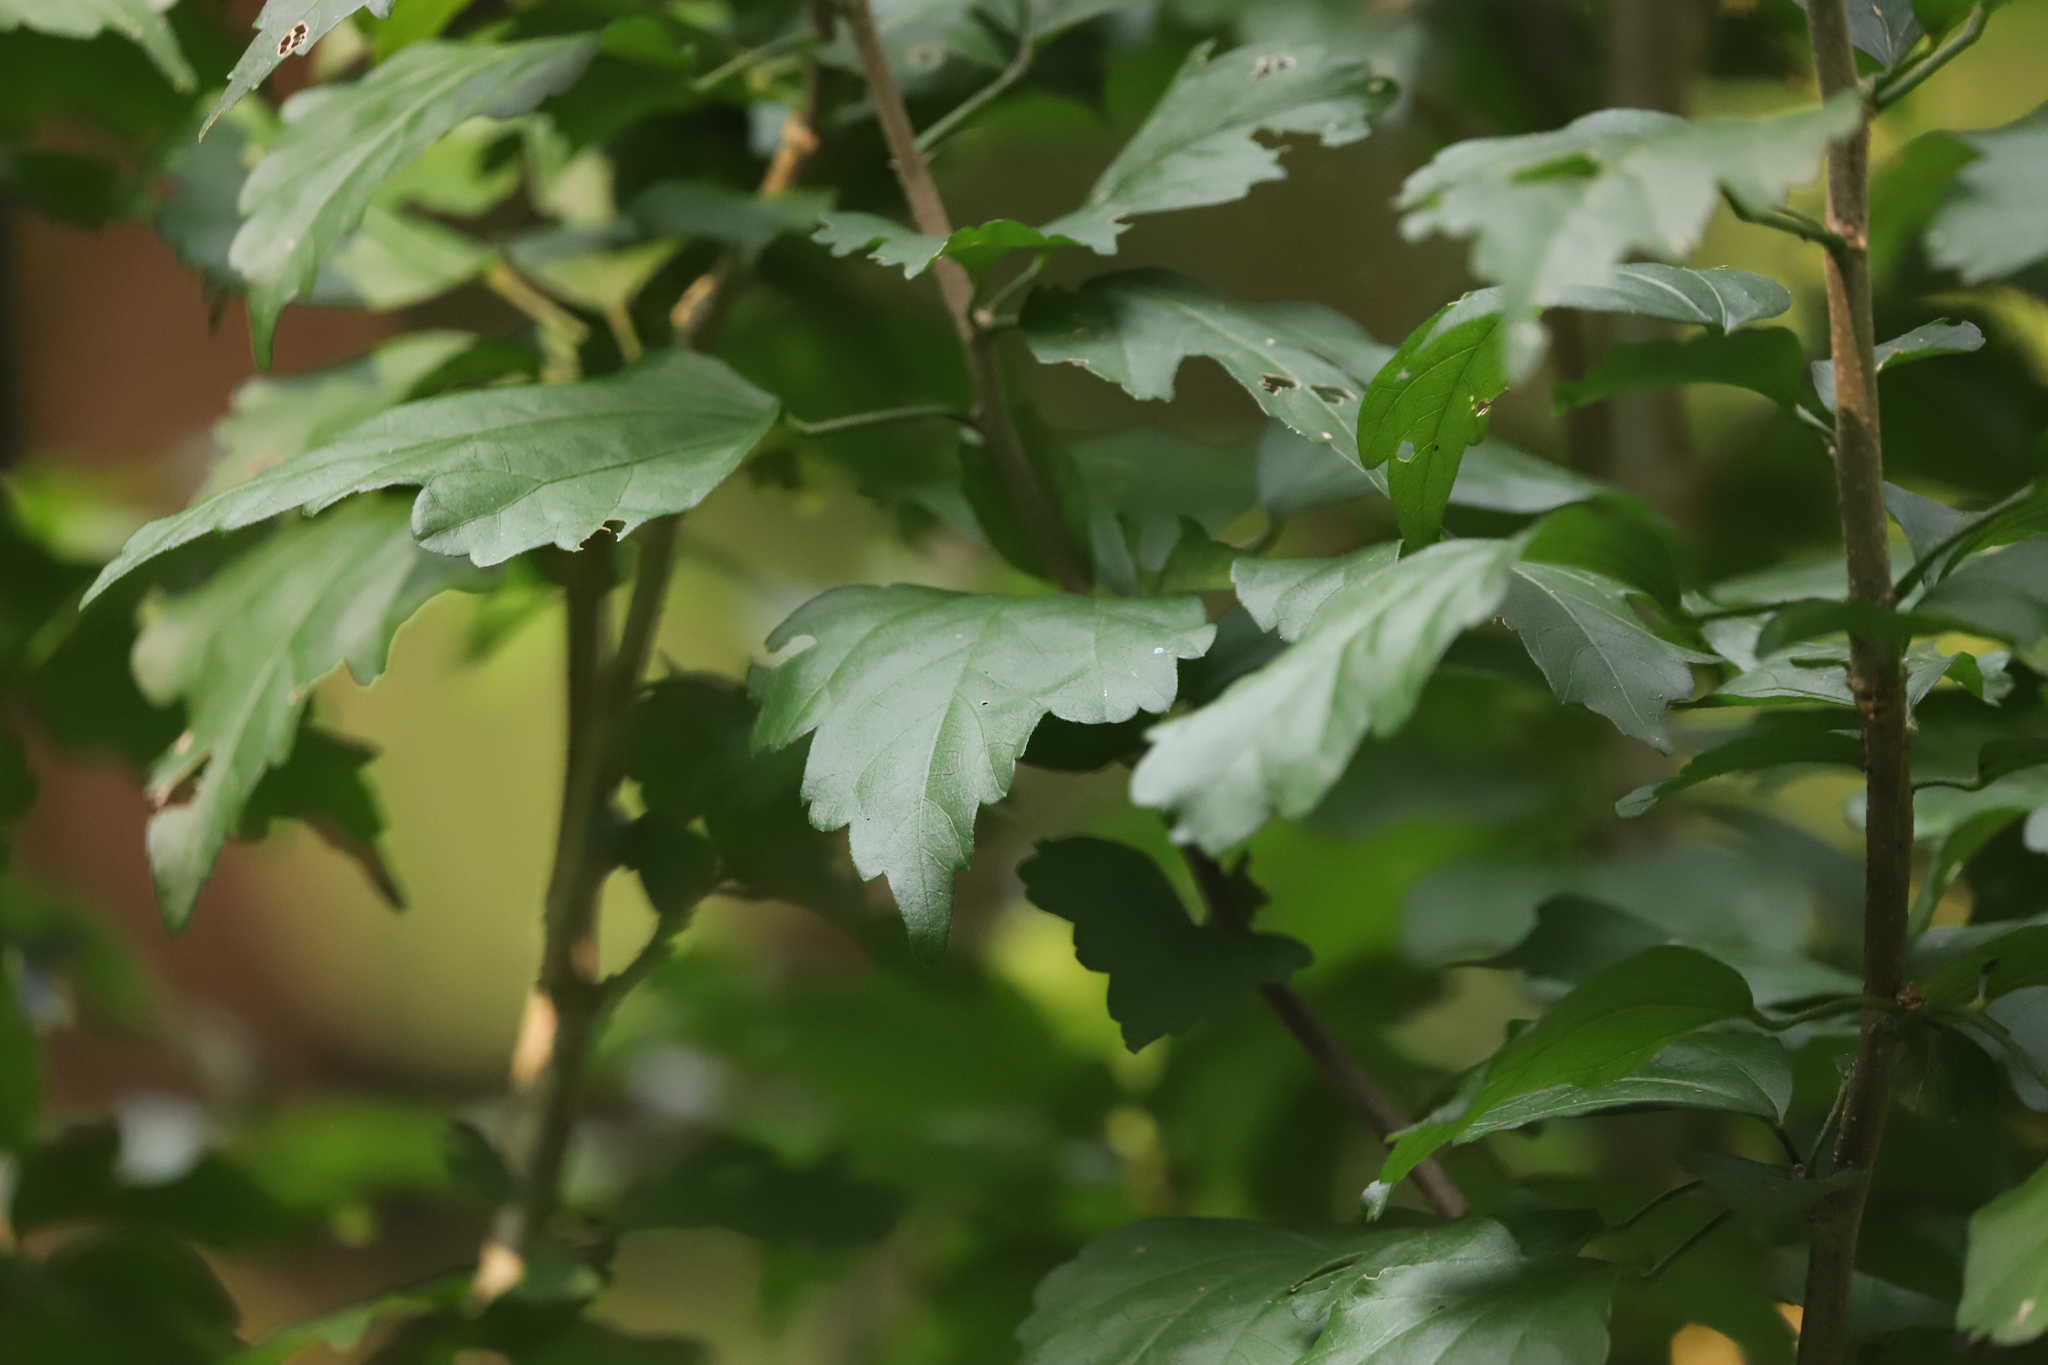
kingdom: Plantae
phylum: Tracheophyta
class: Magnoliopsida
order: Malvales
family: Malvaceae
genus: Hibiscus
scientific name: Hibiscus syriacus
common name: Syrian ketmia
